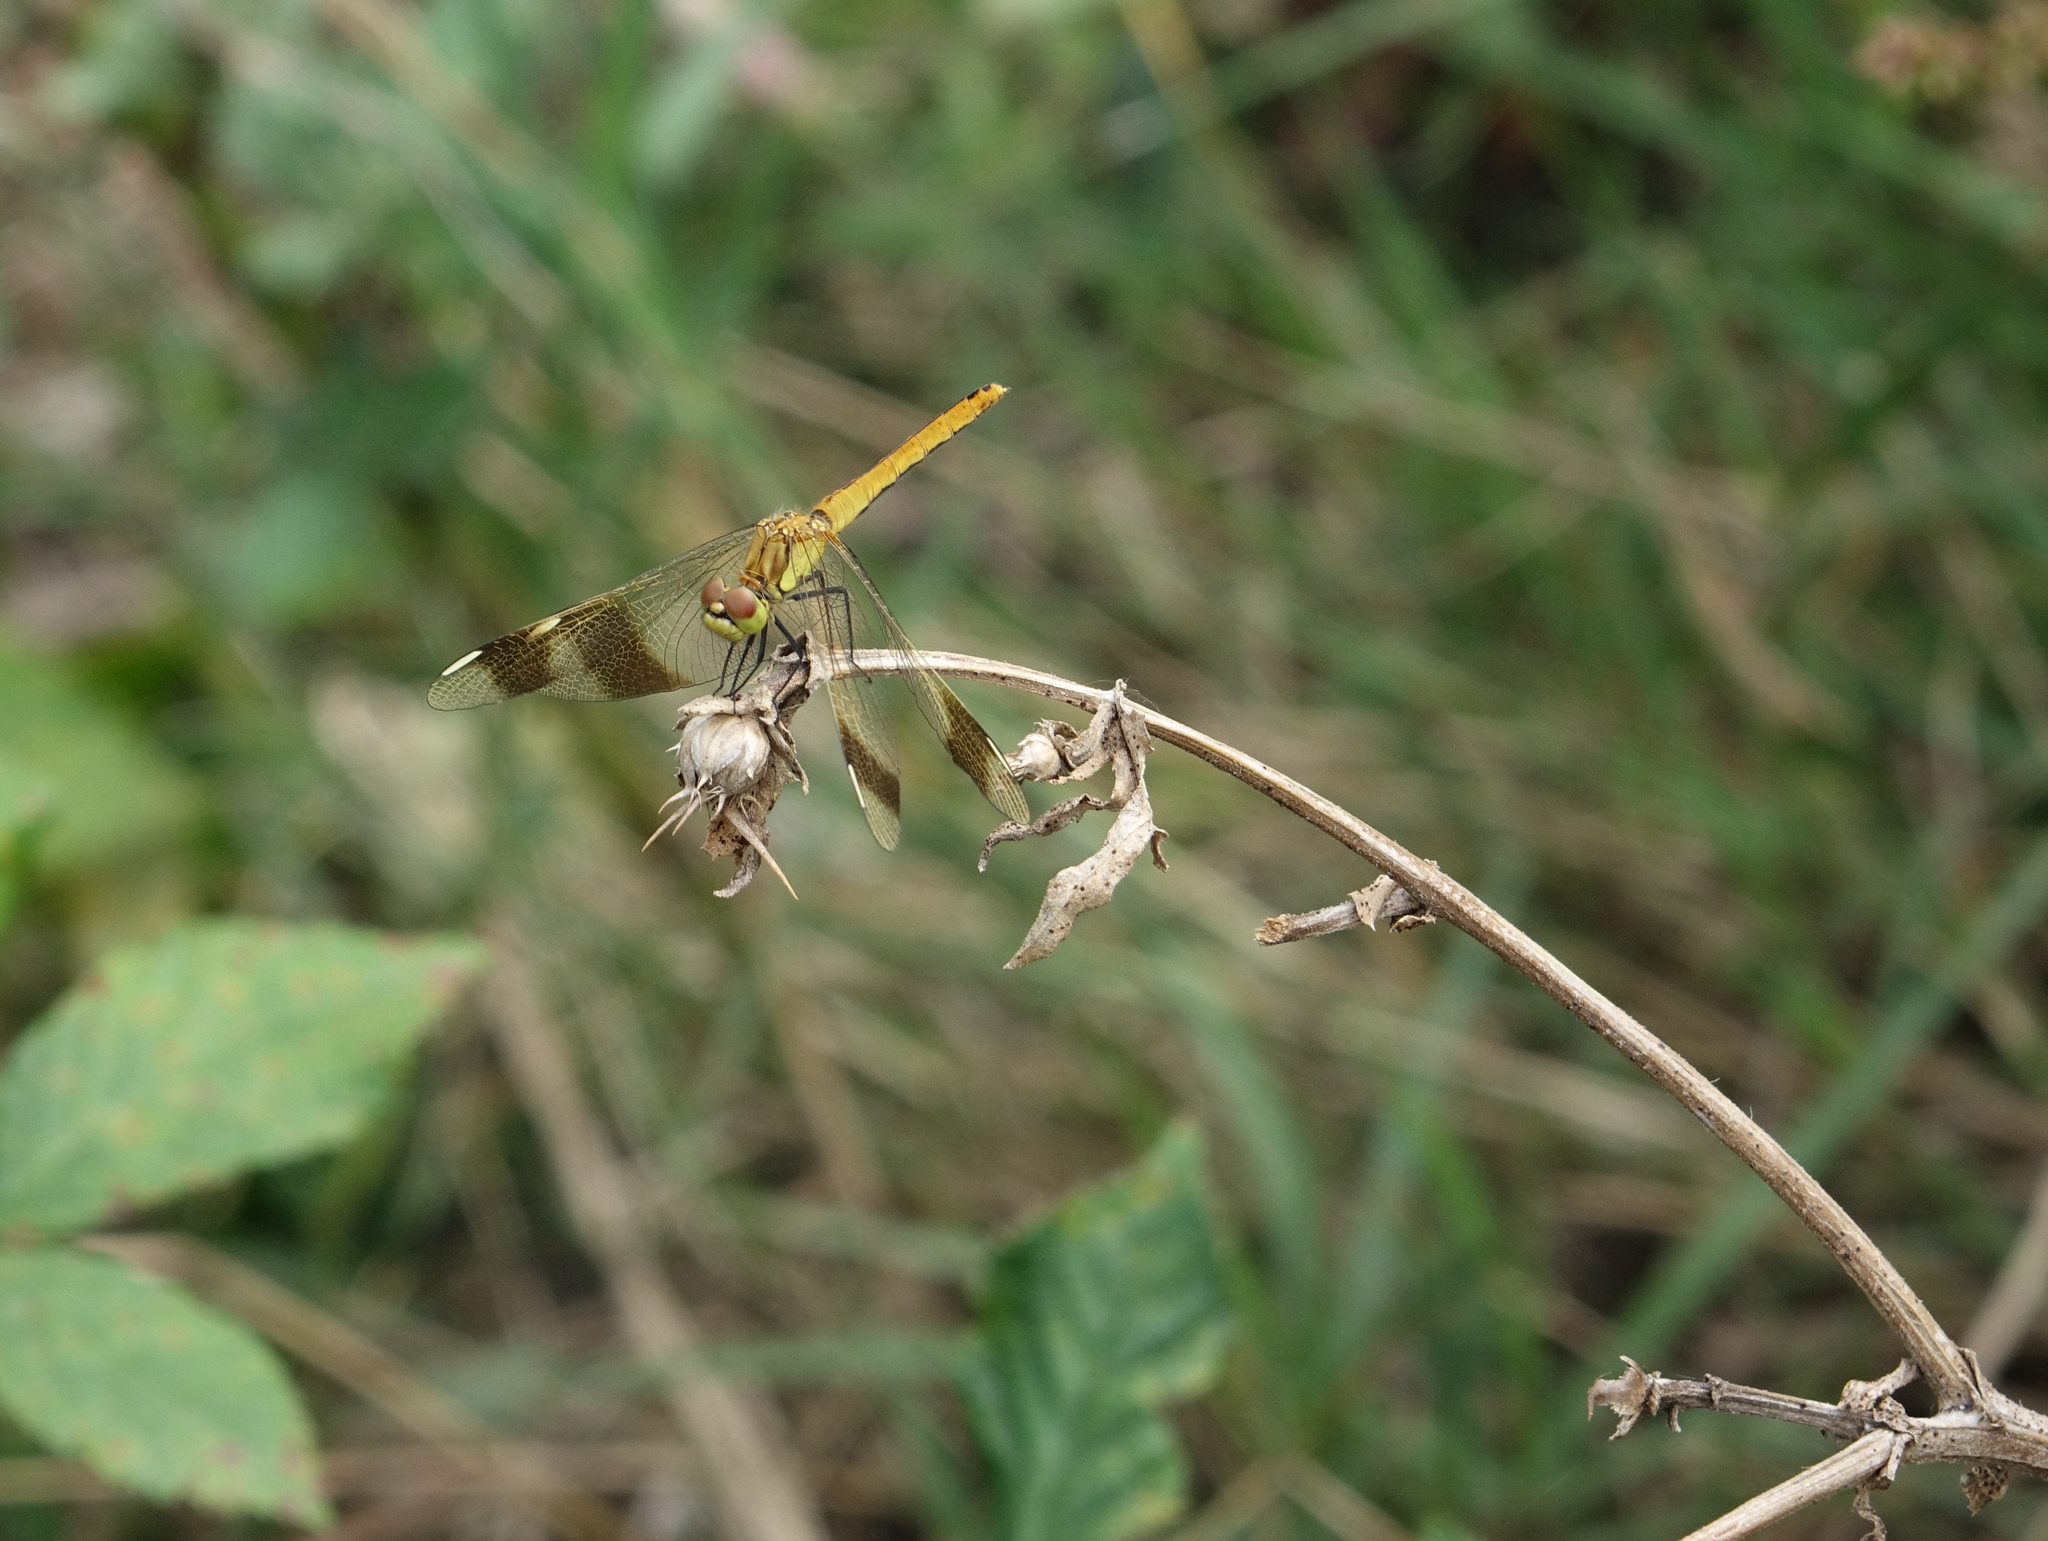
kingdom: Animalia
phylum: Arthropoda
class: Insecta
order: Odonata
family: Libellulidae
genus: Sympetrum
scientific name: Sympetrum pedemontanum
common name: Banded darter
